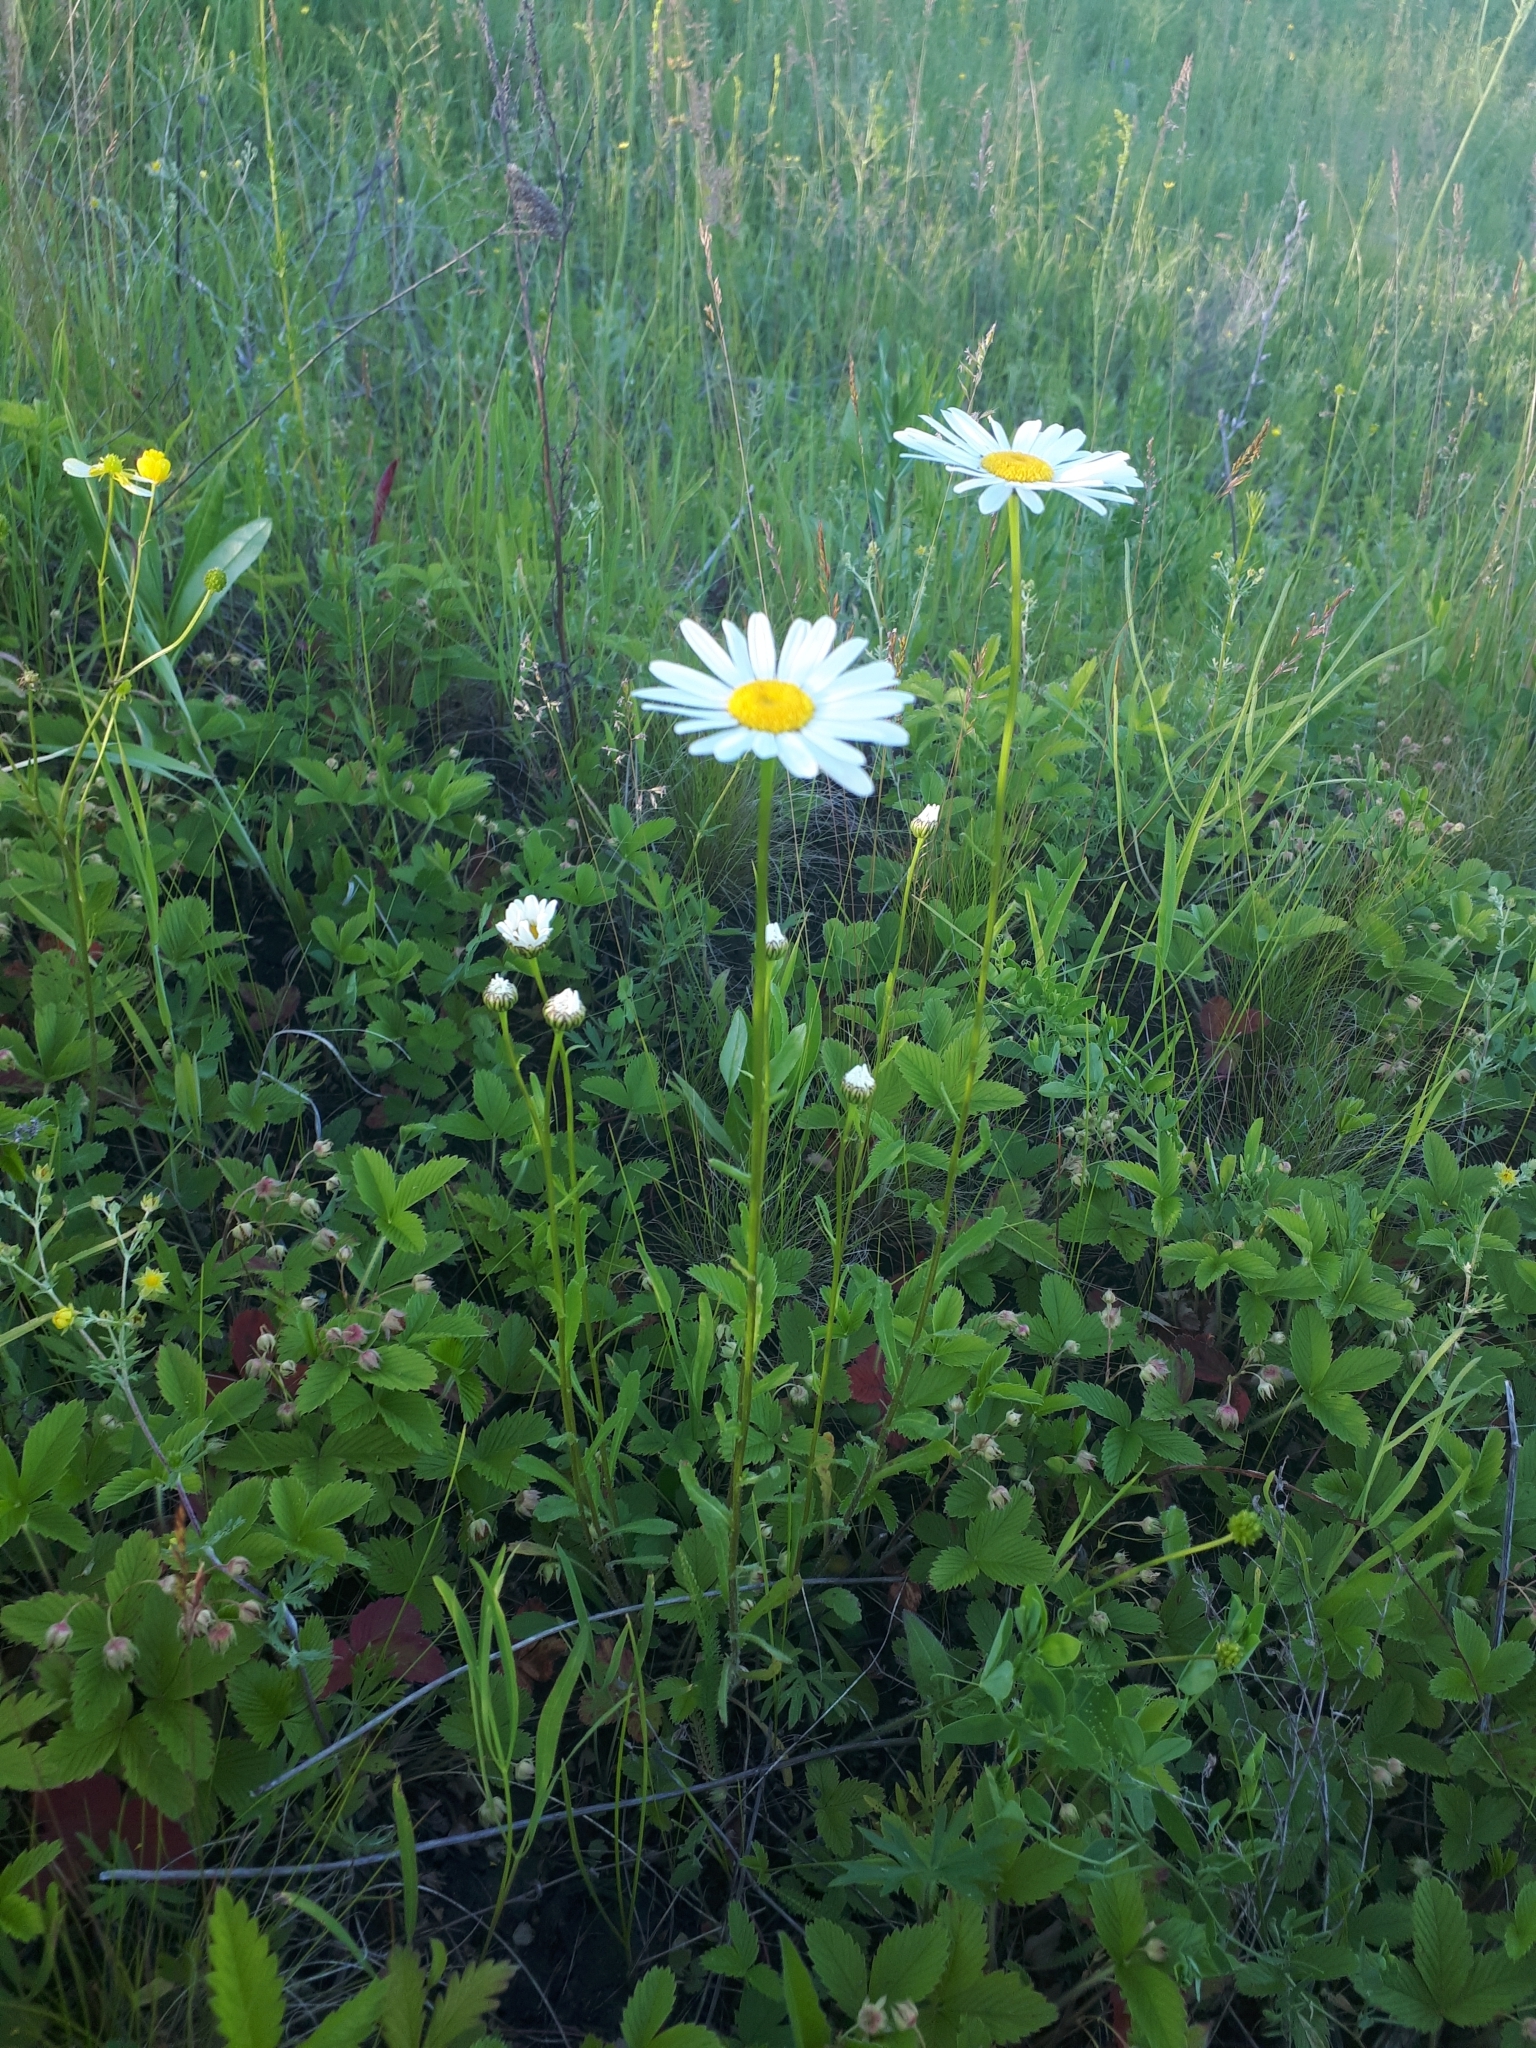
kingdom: Plantae
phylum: Tracheophyta
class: Magnoliopsida
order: Asterales
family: Asteraceae
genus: Leucanthemum
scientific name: Leucanthemum vulgare
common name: Oxeye daisy
